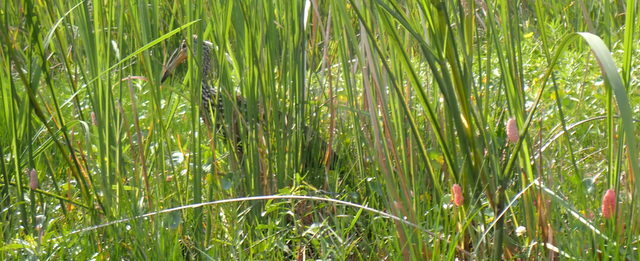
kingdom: Animalia
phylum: Chordata
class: Aves
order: Gruiformes
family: Aramidae
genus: Aramus
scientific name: Aramus guarauna
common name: Limpkin
